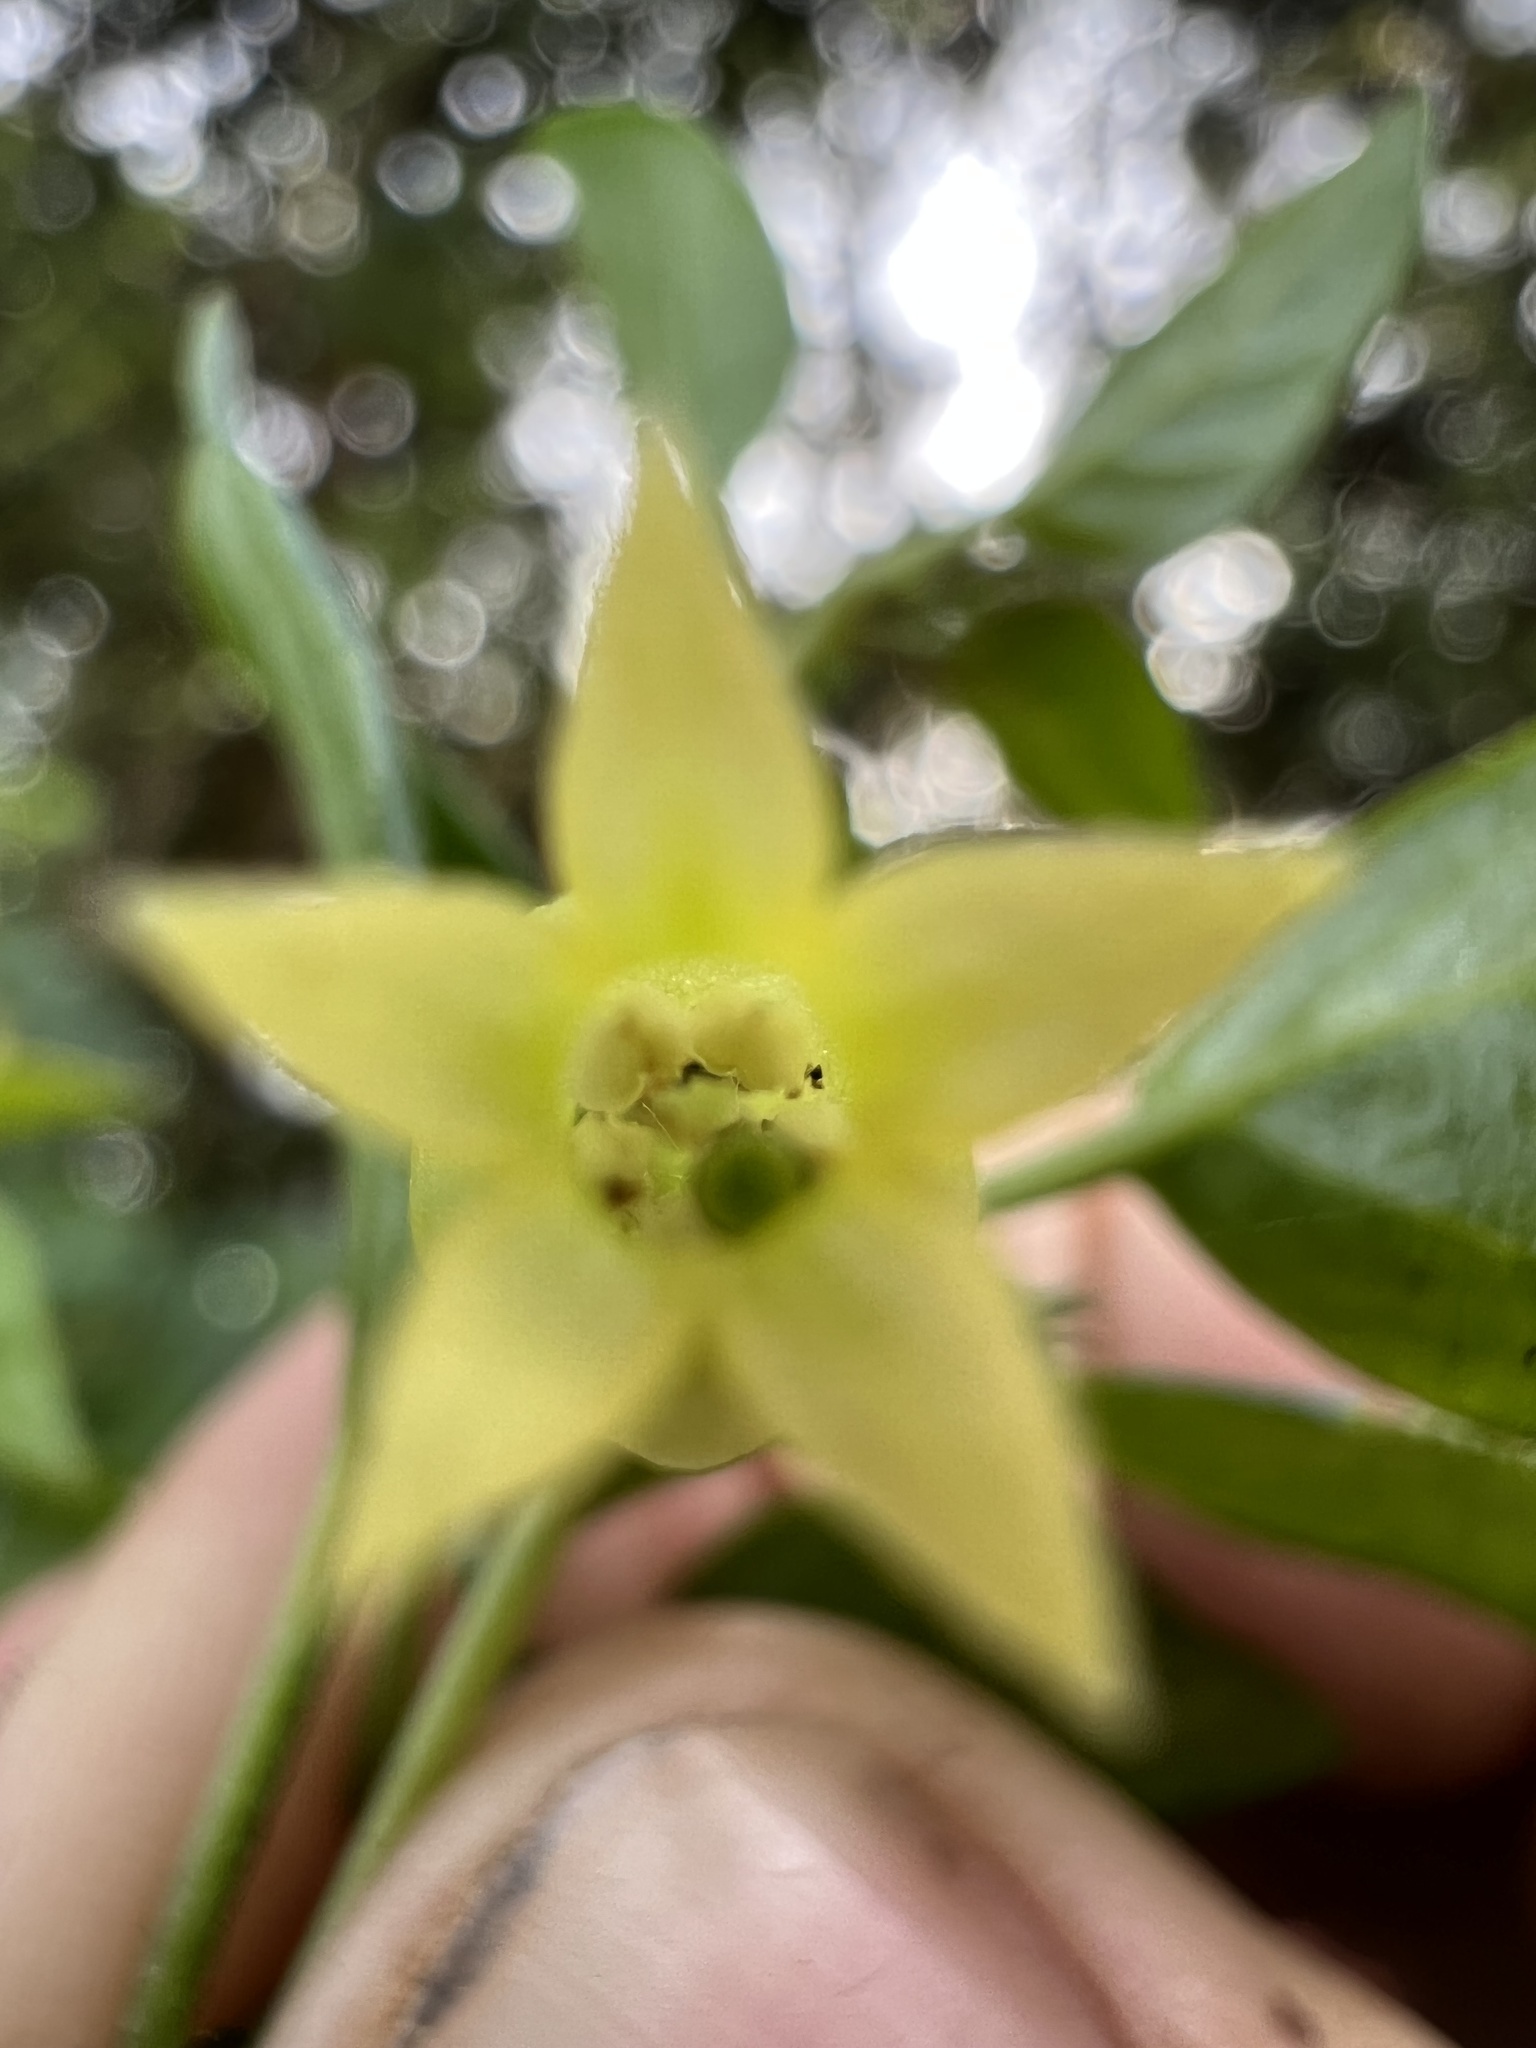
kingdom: Plantae
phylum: Tracheophyta
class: Magnoliopsida
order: Solanales
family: Solanaceae
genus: Salpichroa
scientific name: Salpichroa tristis
